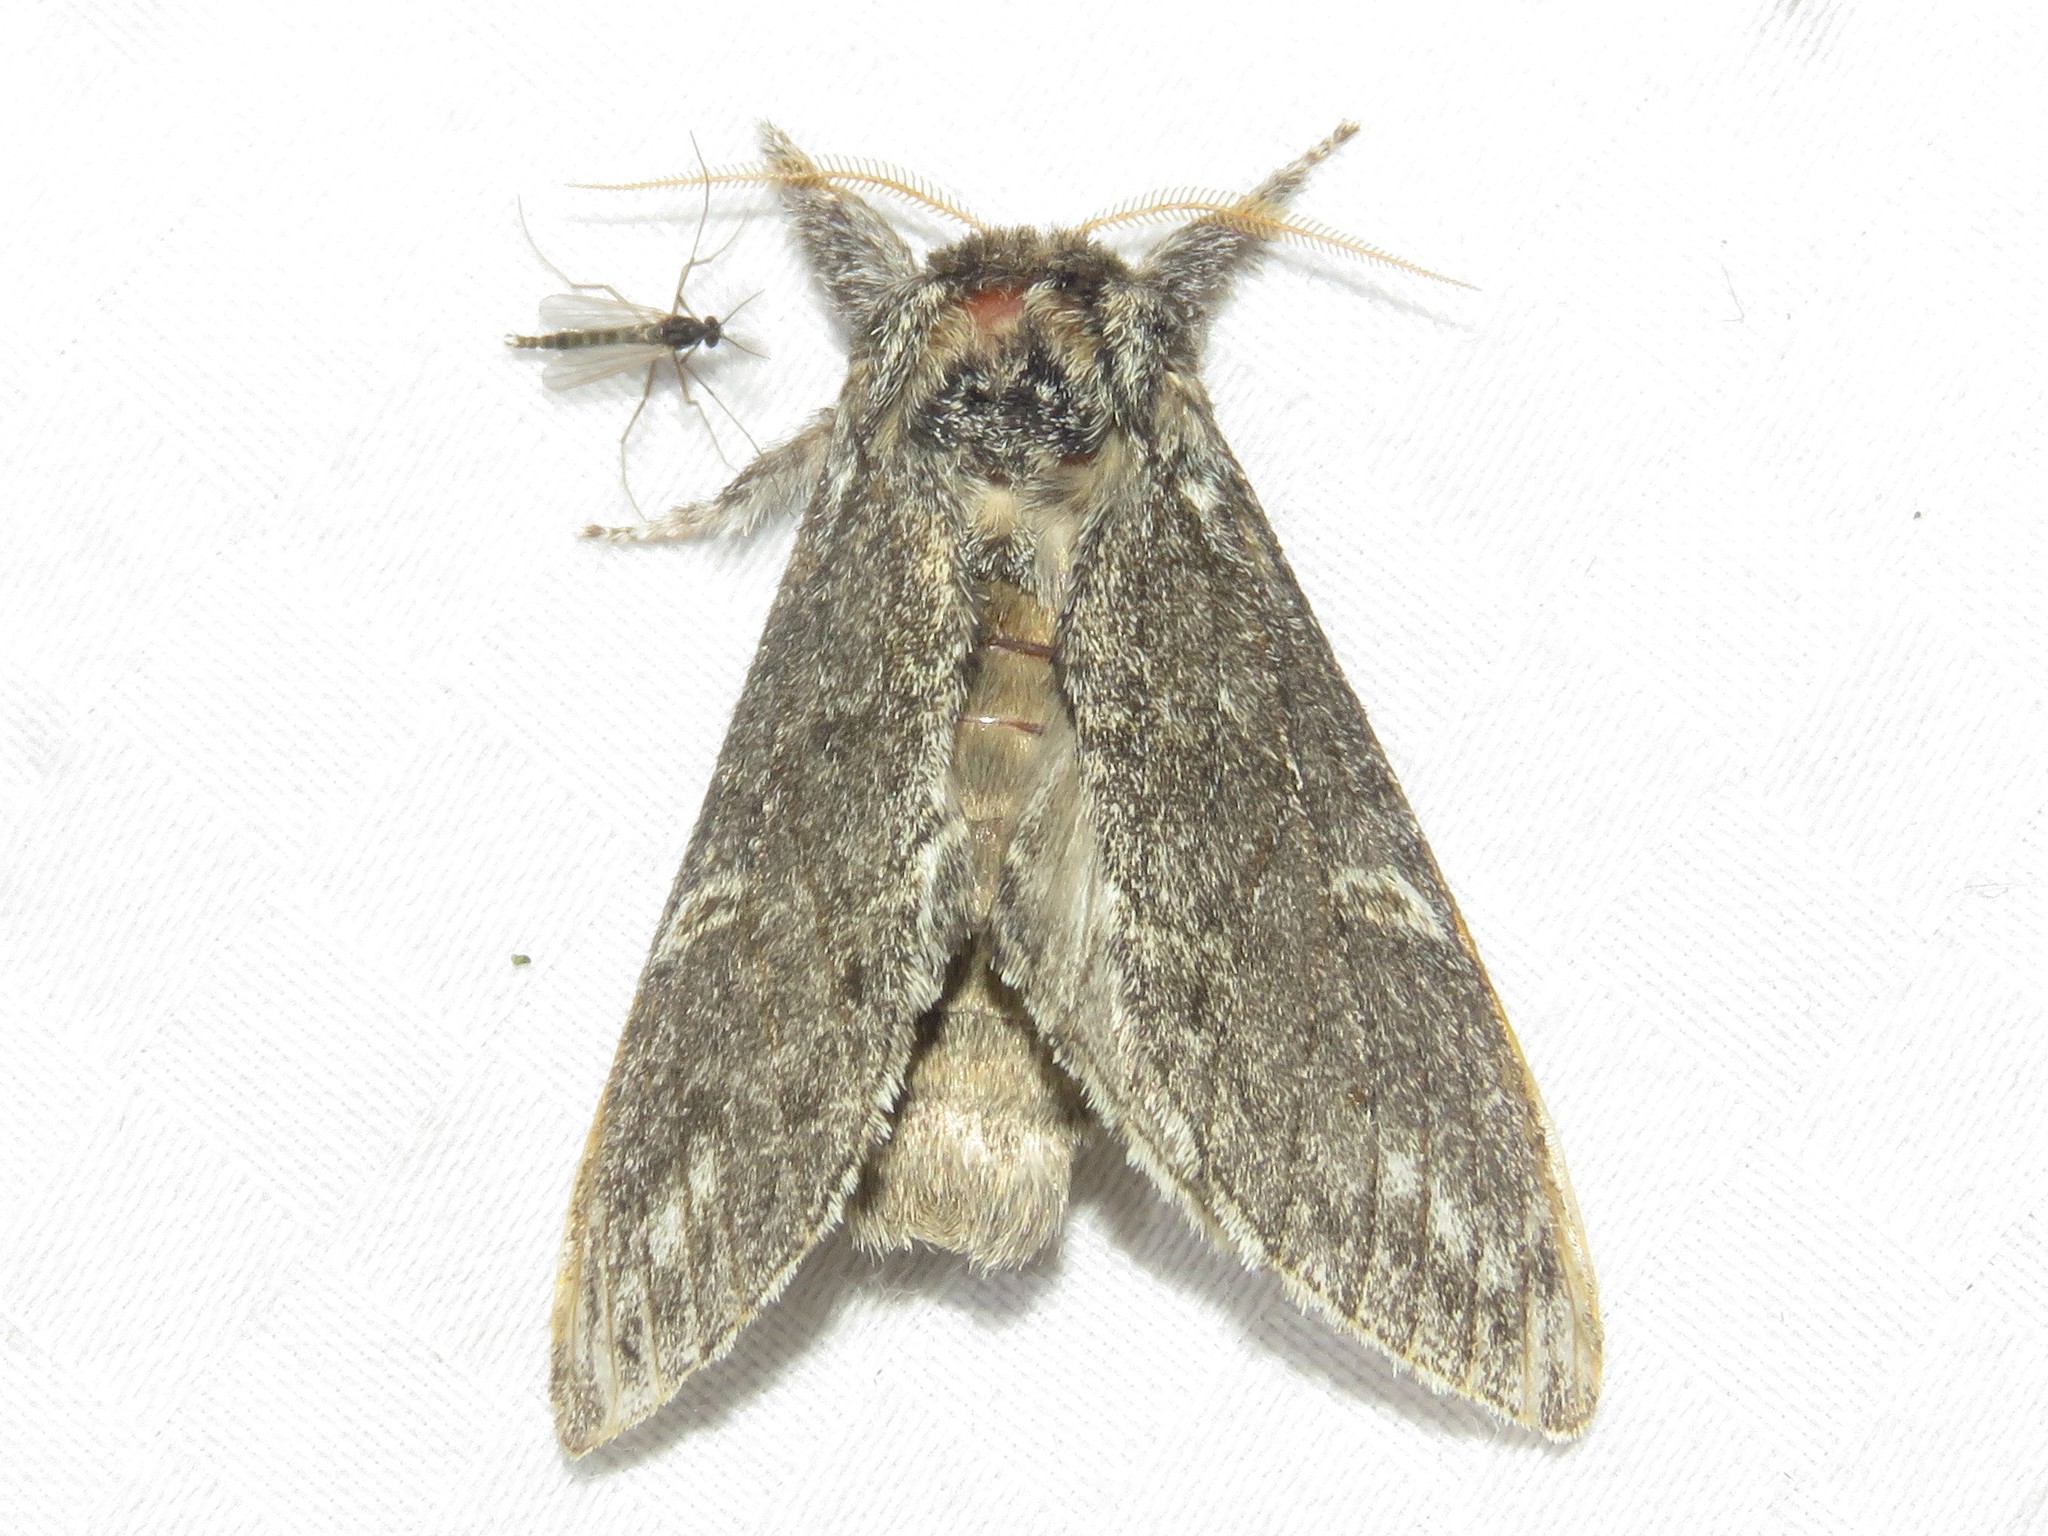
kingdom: Animalia
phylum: Arthropoda
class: Insecta
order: Lepidoptera
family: Notodontidae
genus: Notodonta
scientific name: Notodonta torva
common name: Large dark prominent
